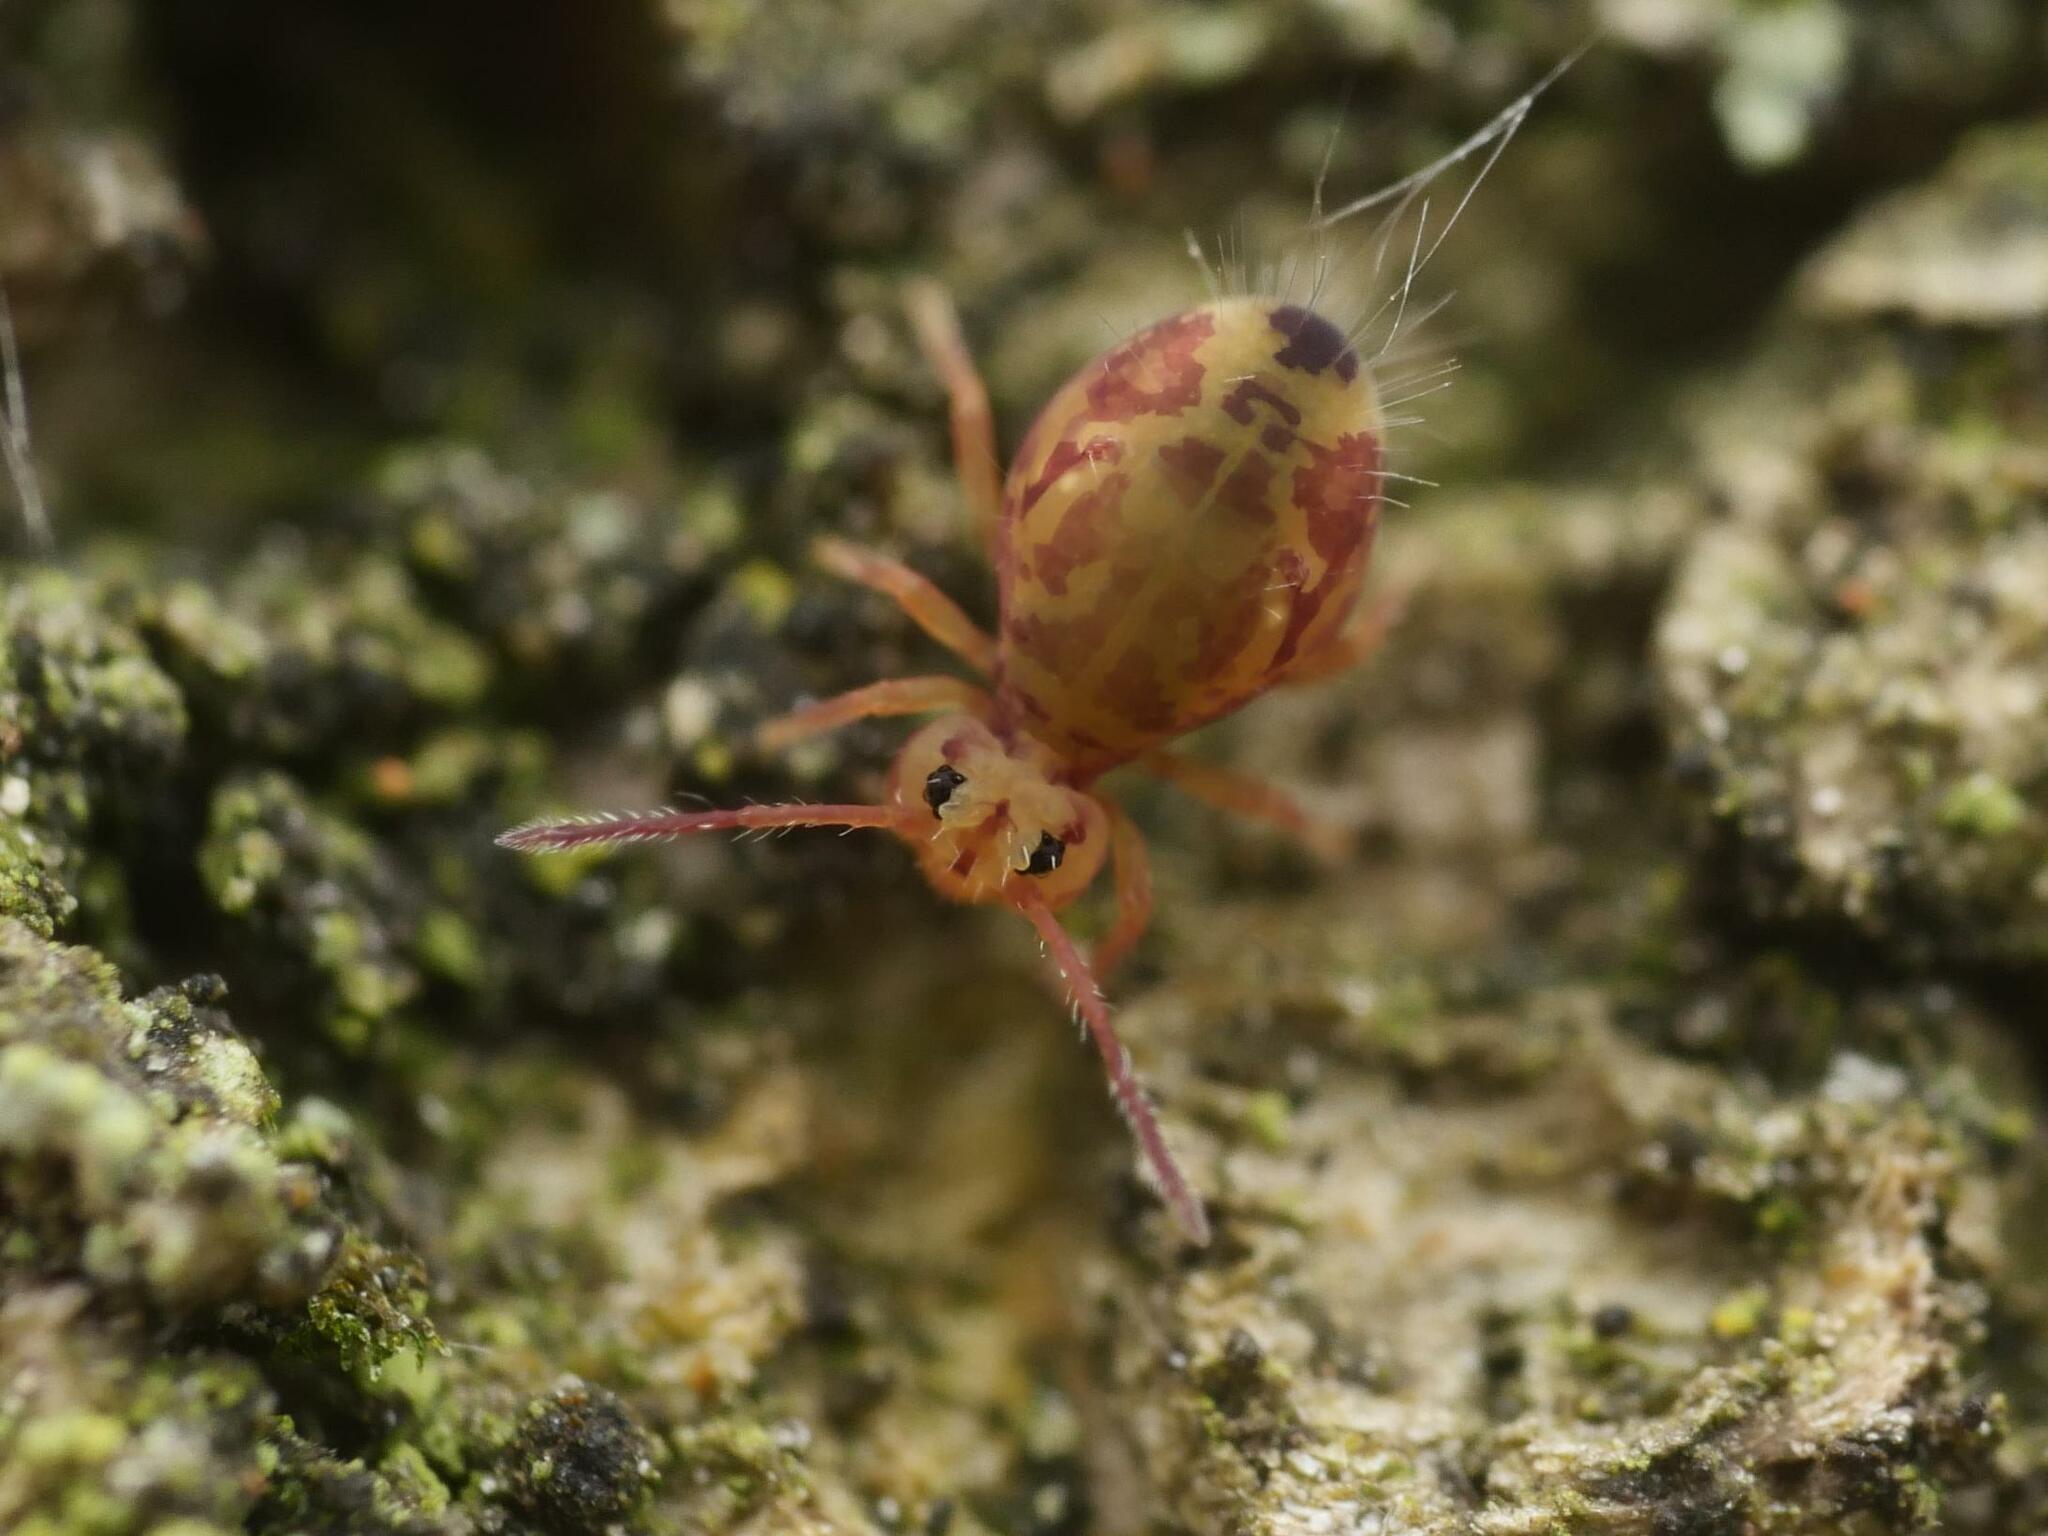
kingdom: Animalia
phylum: Arthropoda
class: Collembola
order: Symphypleona
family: Dicyrtomidae
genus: Dicyrtomina
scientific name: Dicyrtomina ornata
